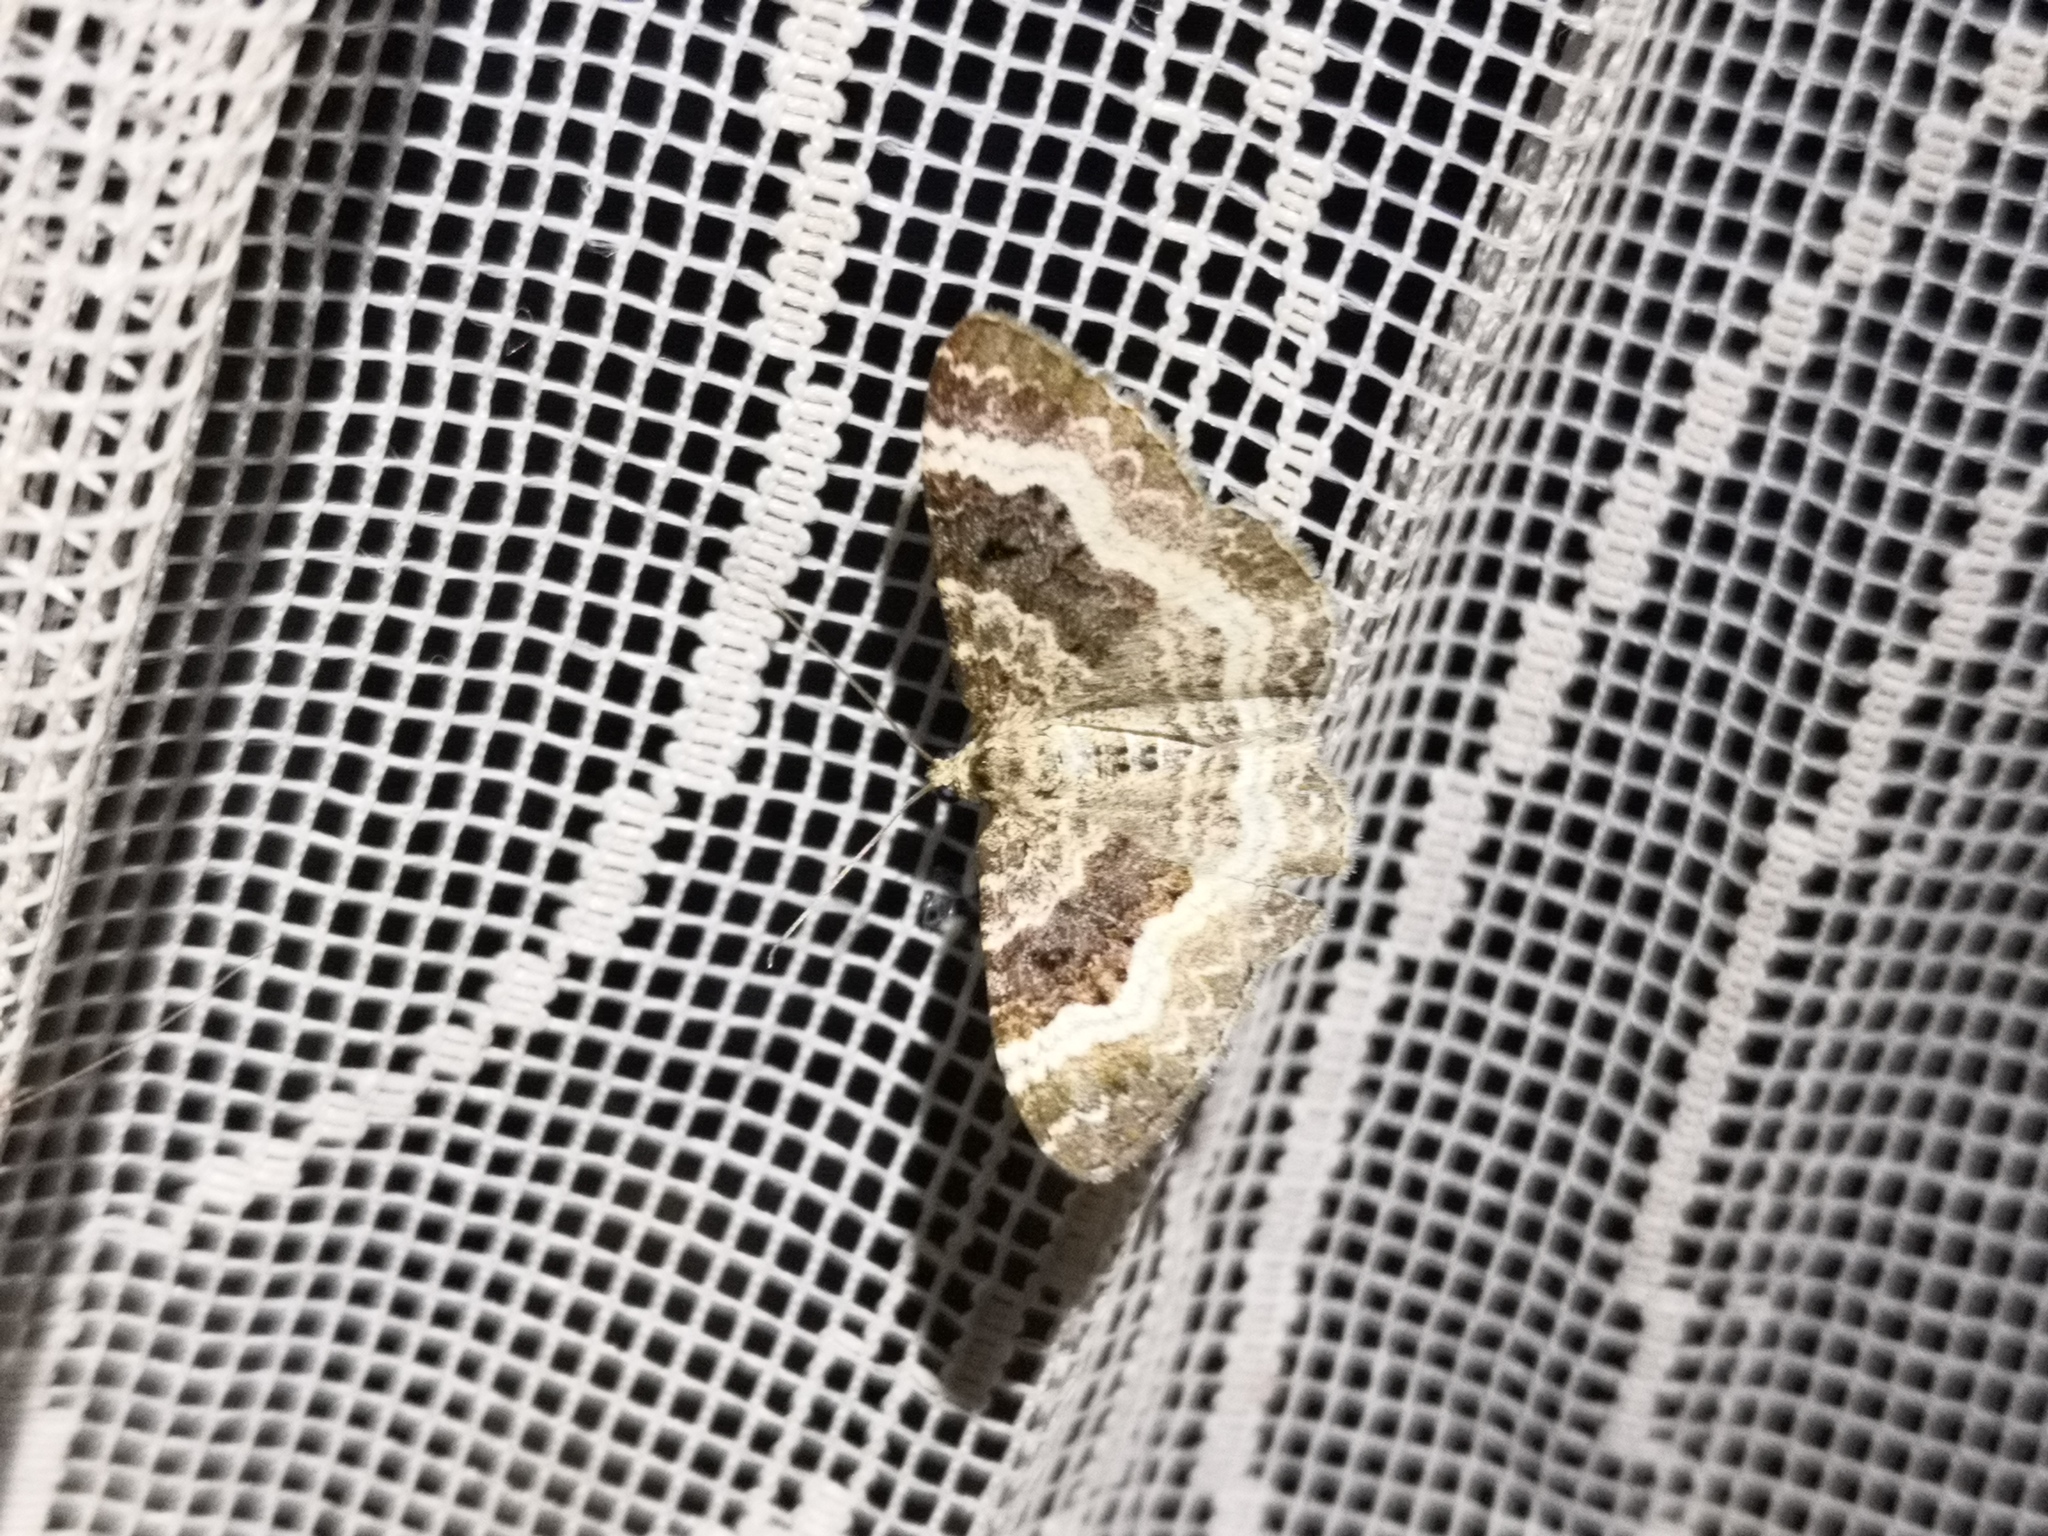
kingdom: Animalia
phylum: Arthropoda
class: Insecta
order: Lepidoptera
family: Geometridae
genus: Epirrhoe
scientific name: Epirrhoe alternata
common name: Common carpet
